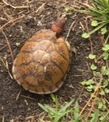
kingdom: Animalia
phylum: Chordata
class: Testudines
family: Emydidae
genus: Terrapene
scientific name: Terrapene carolina
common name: Common box turtle
